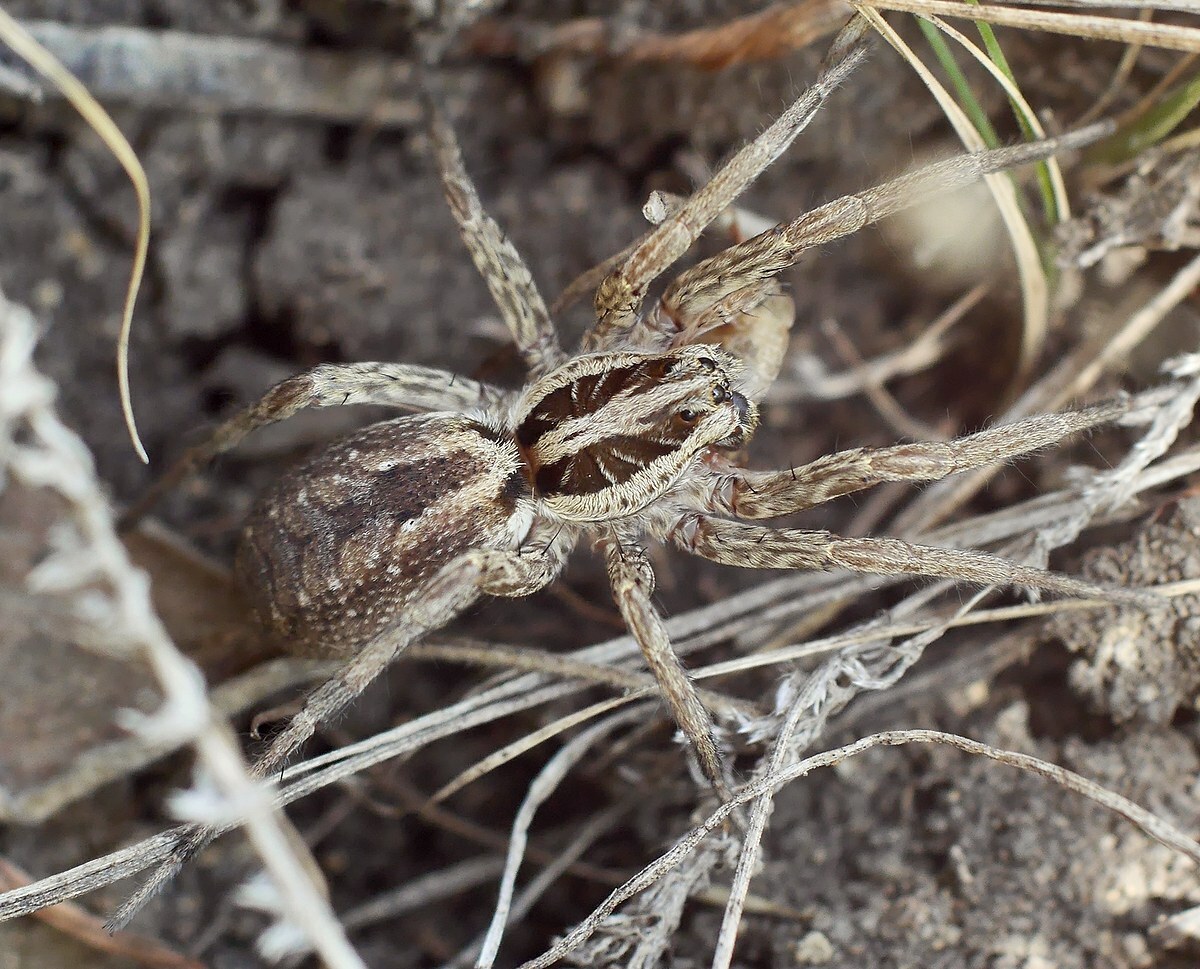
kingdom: Animalia
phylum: Arthropoda
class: Arachnida
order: Araneae
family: Lycosidae
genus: Hogna
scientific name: Hogna radiata
